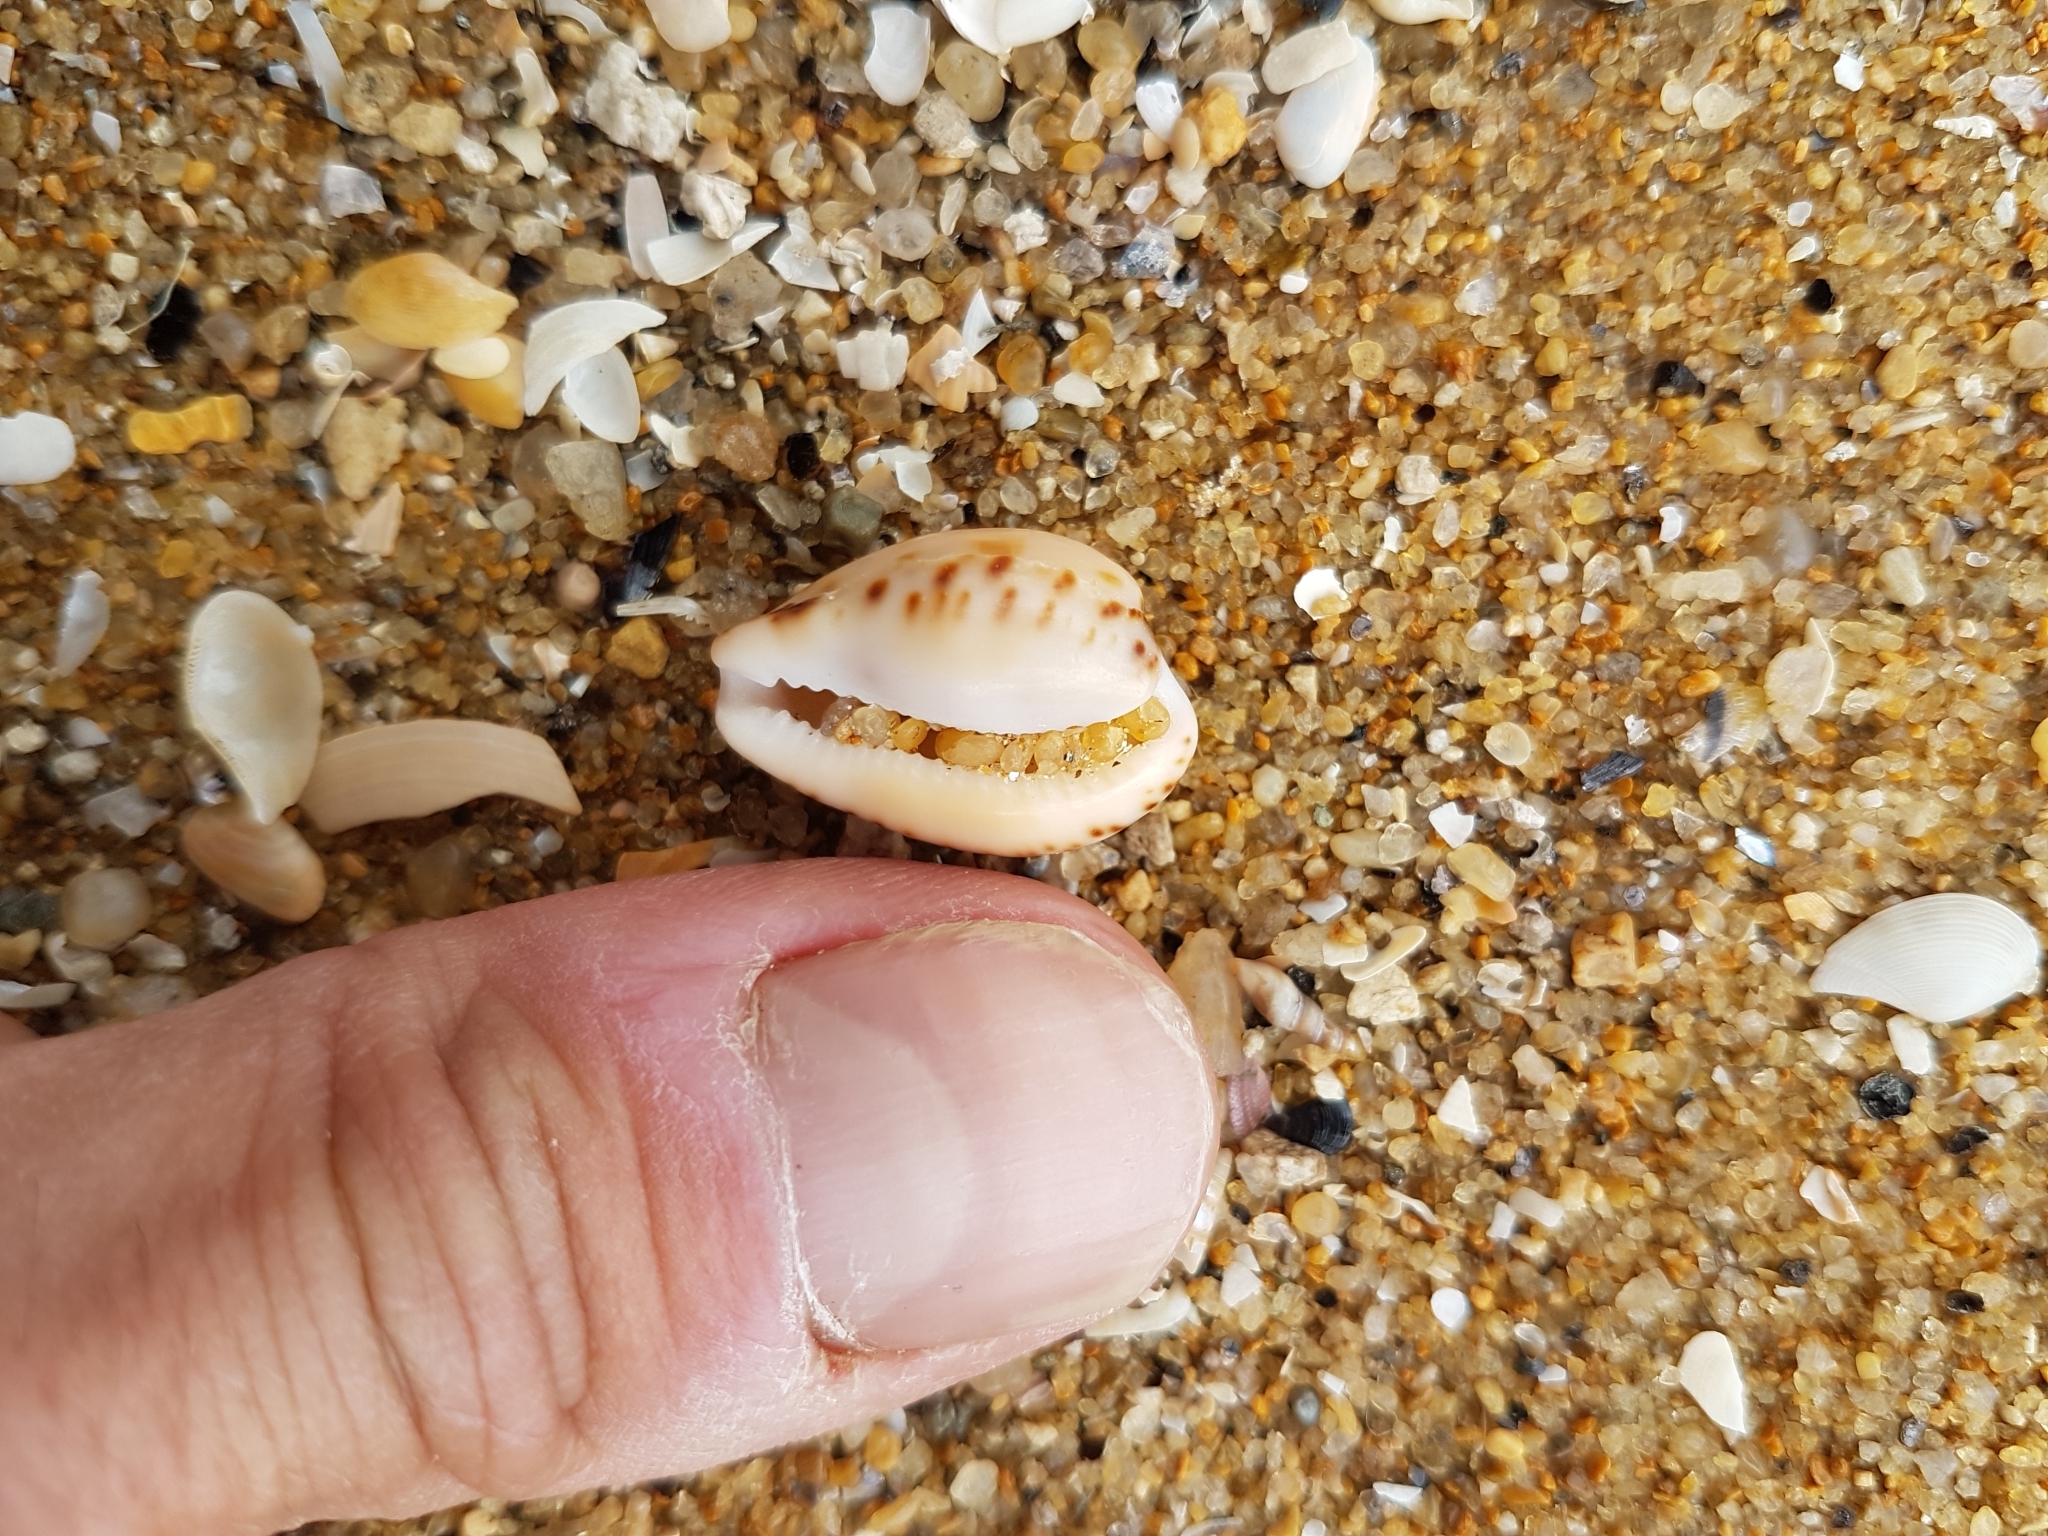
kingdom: Animalia
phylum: Mollusca
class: Gastropoda
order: Littorinimorpha
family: Cypraeidae
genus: Notocypraea
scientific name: Notocypraea angustata
